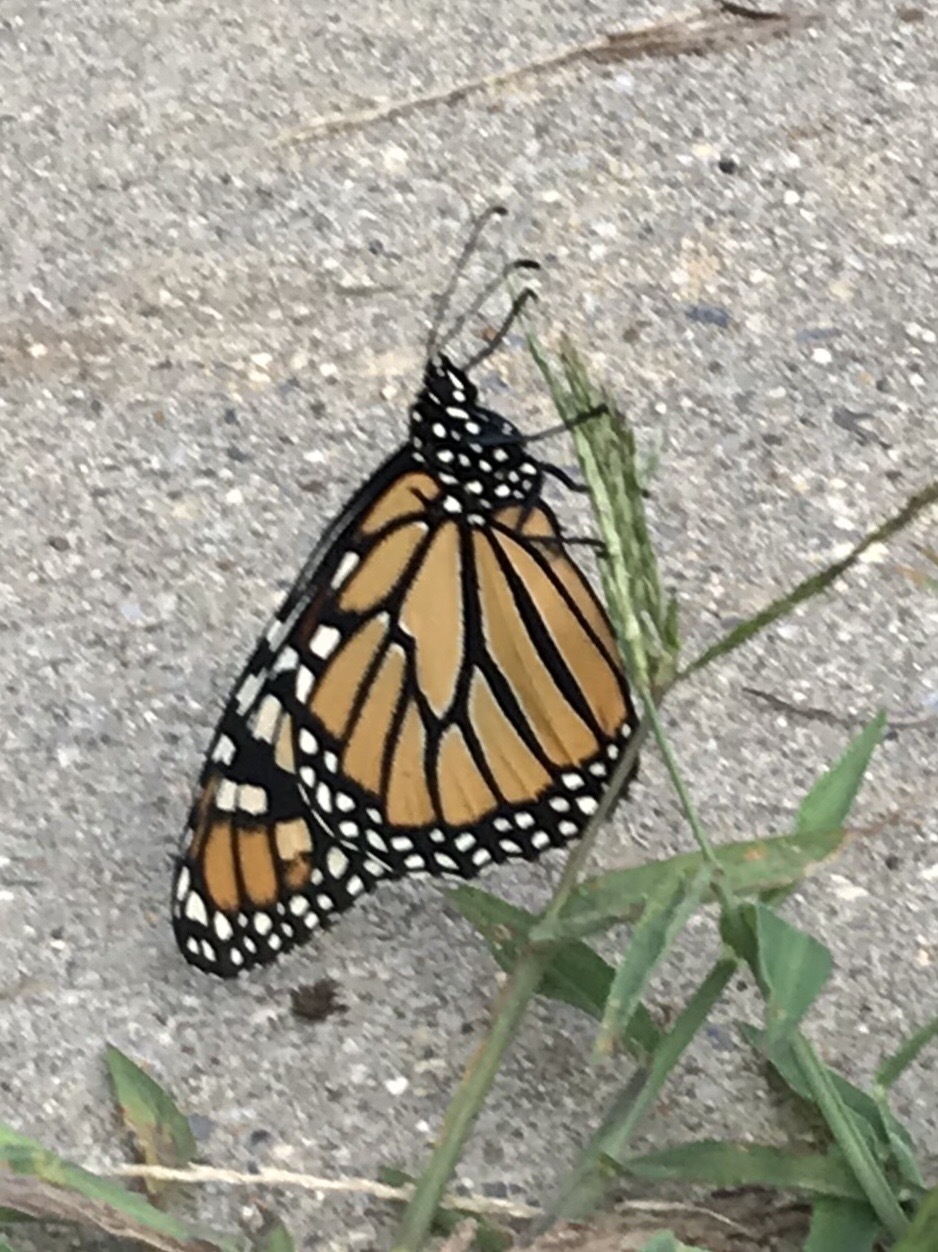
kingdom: Animalia
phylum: Arthropoda
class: Insecta
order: Lepidoptera
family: Nymphalidae
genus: Danaus
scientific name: Danaus plexippus
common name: Monarch
